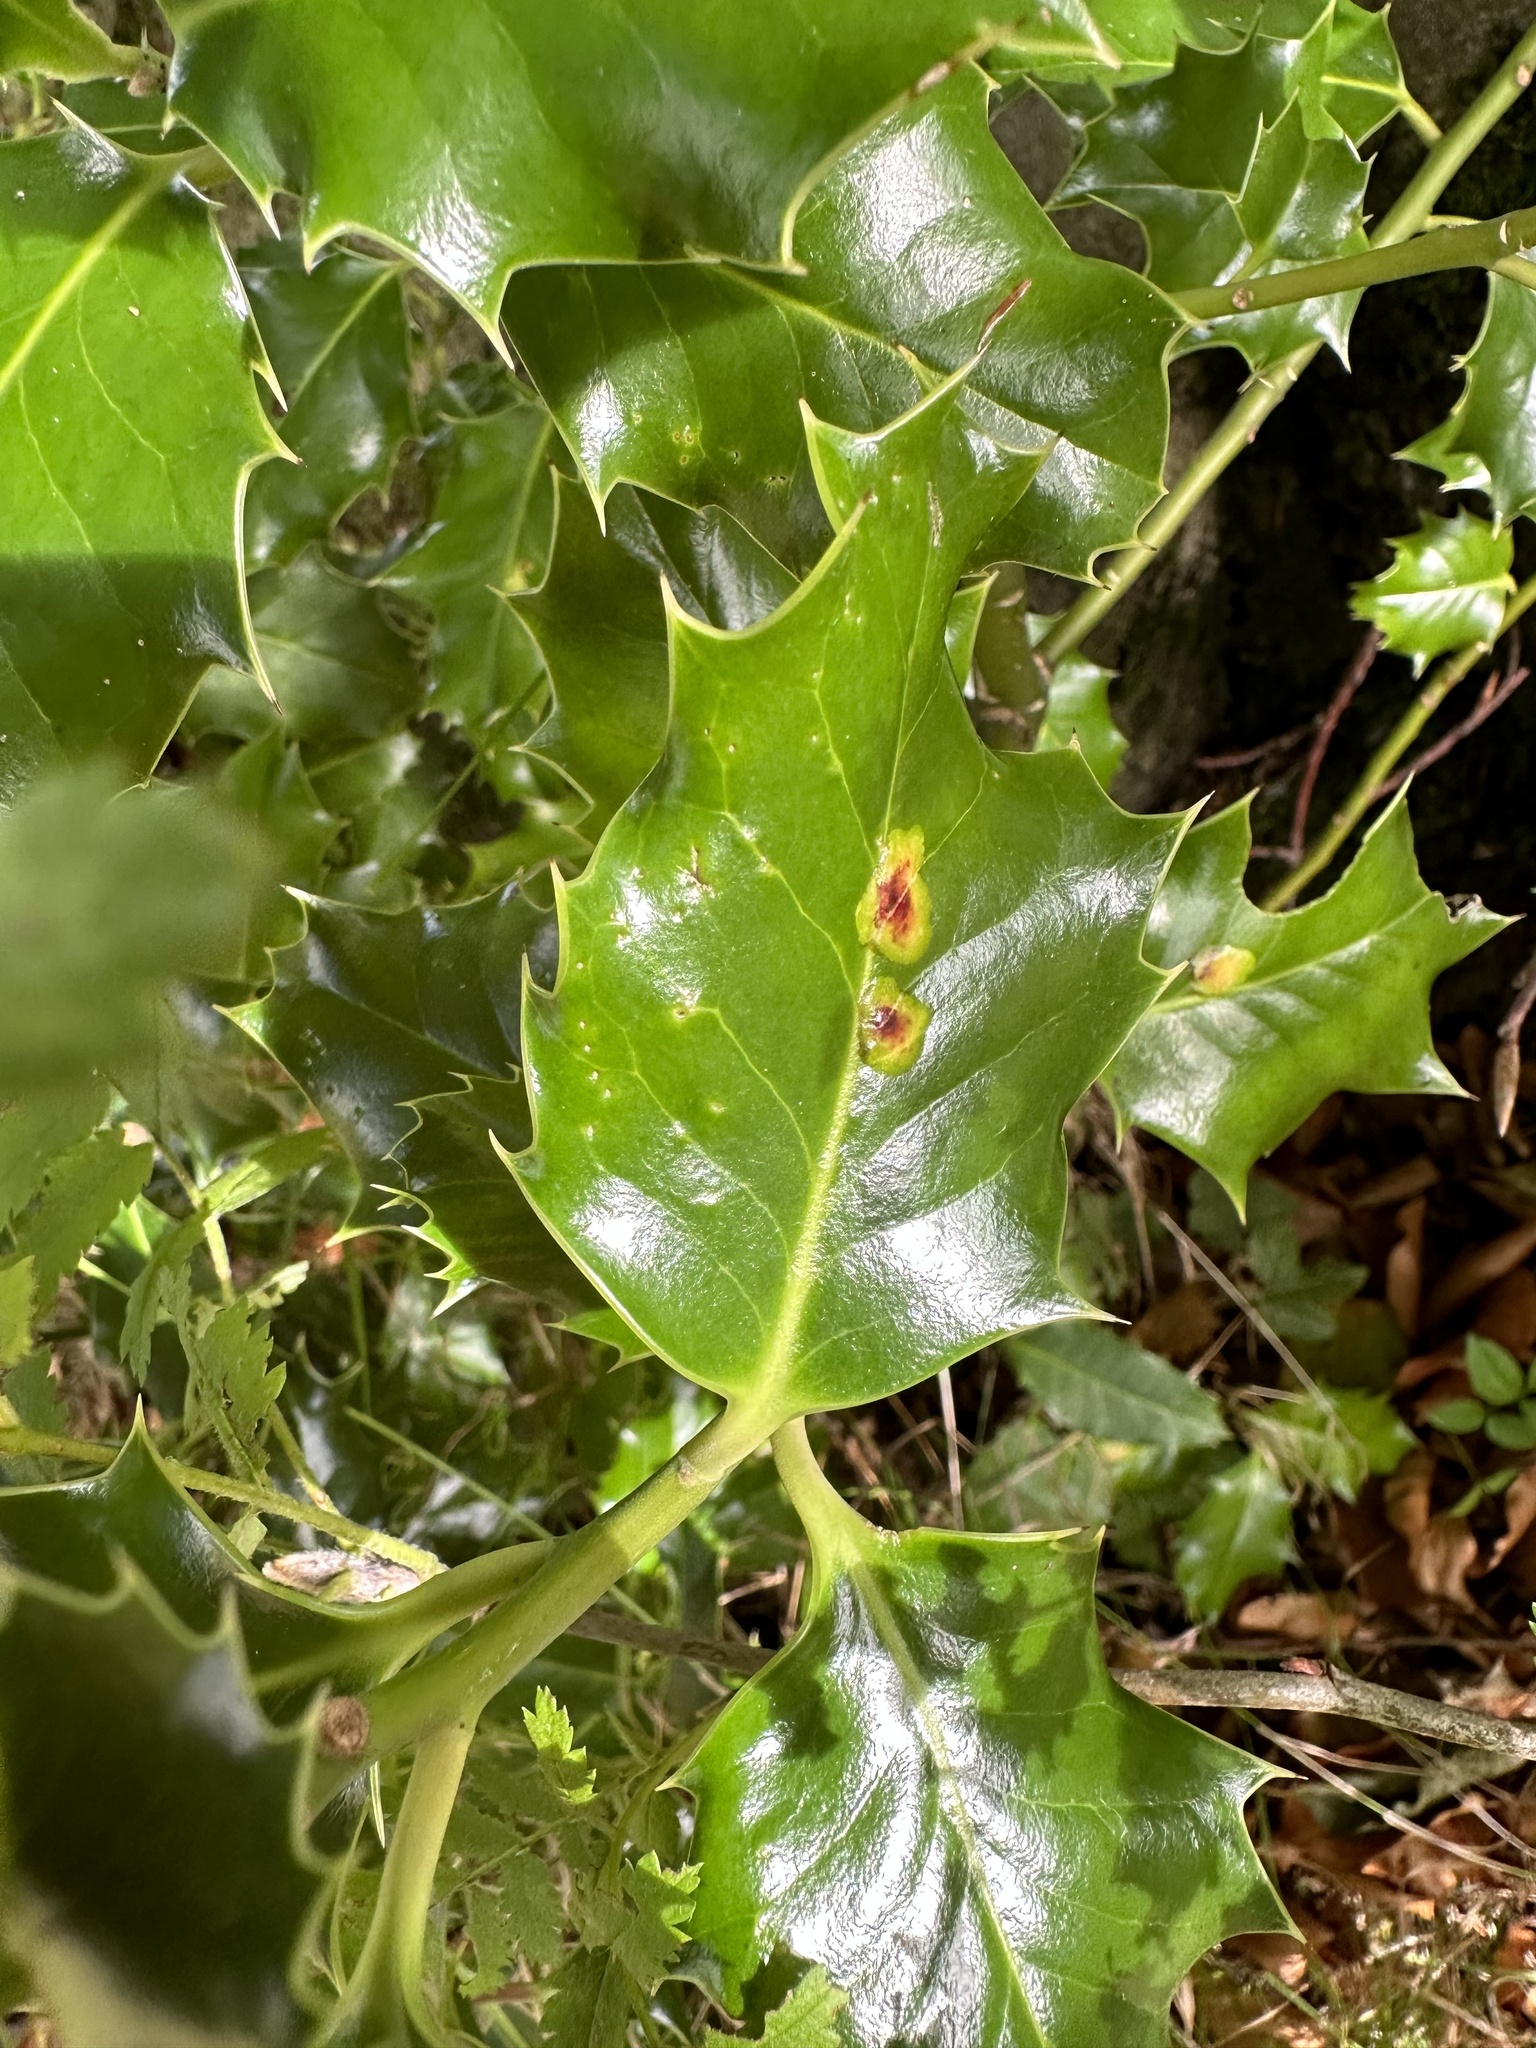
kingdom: Animalia
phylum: Arthropoda
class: Insecta
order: Diptera
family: Agromyzidae
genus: Phytomyza
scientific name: Phytomyza ilicis
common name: Holly leafminer
